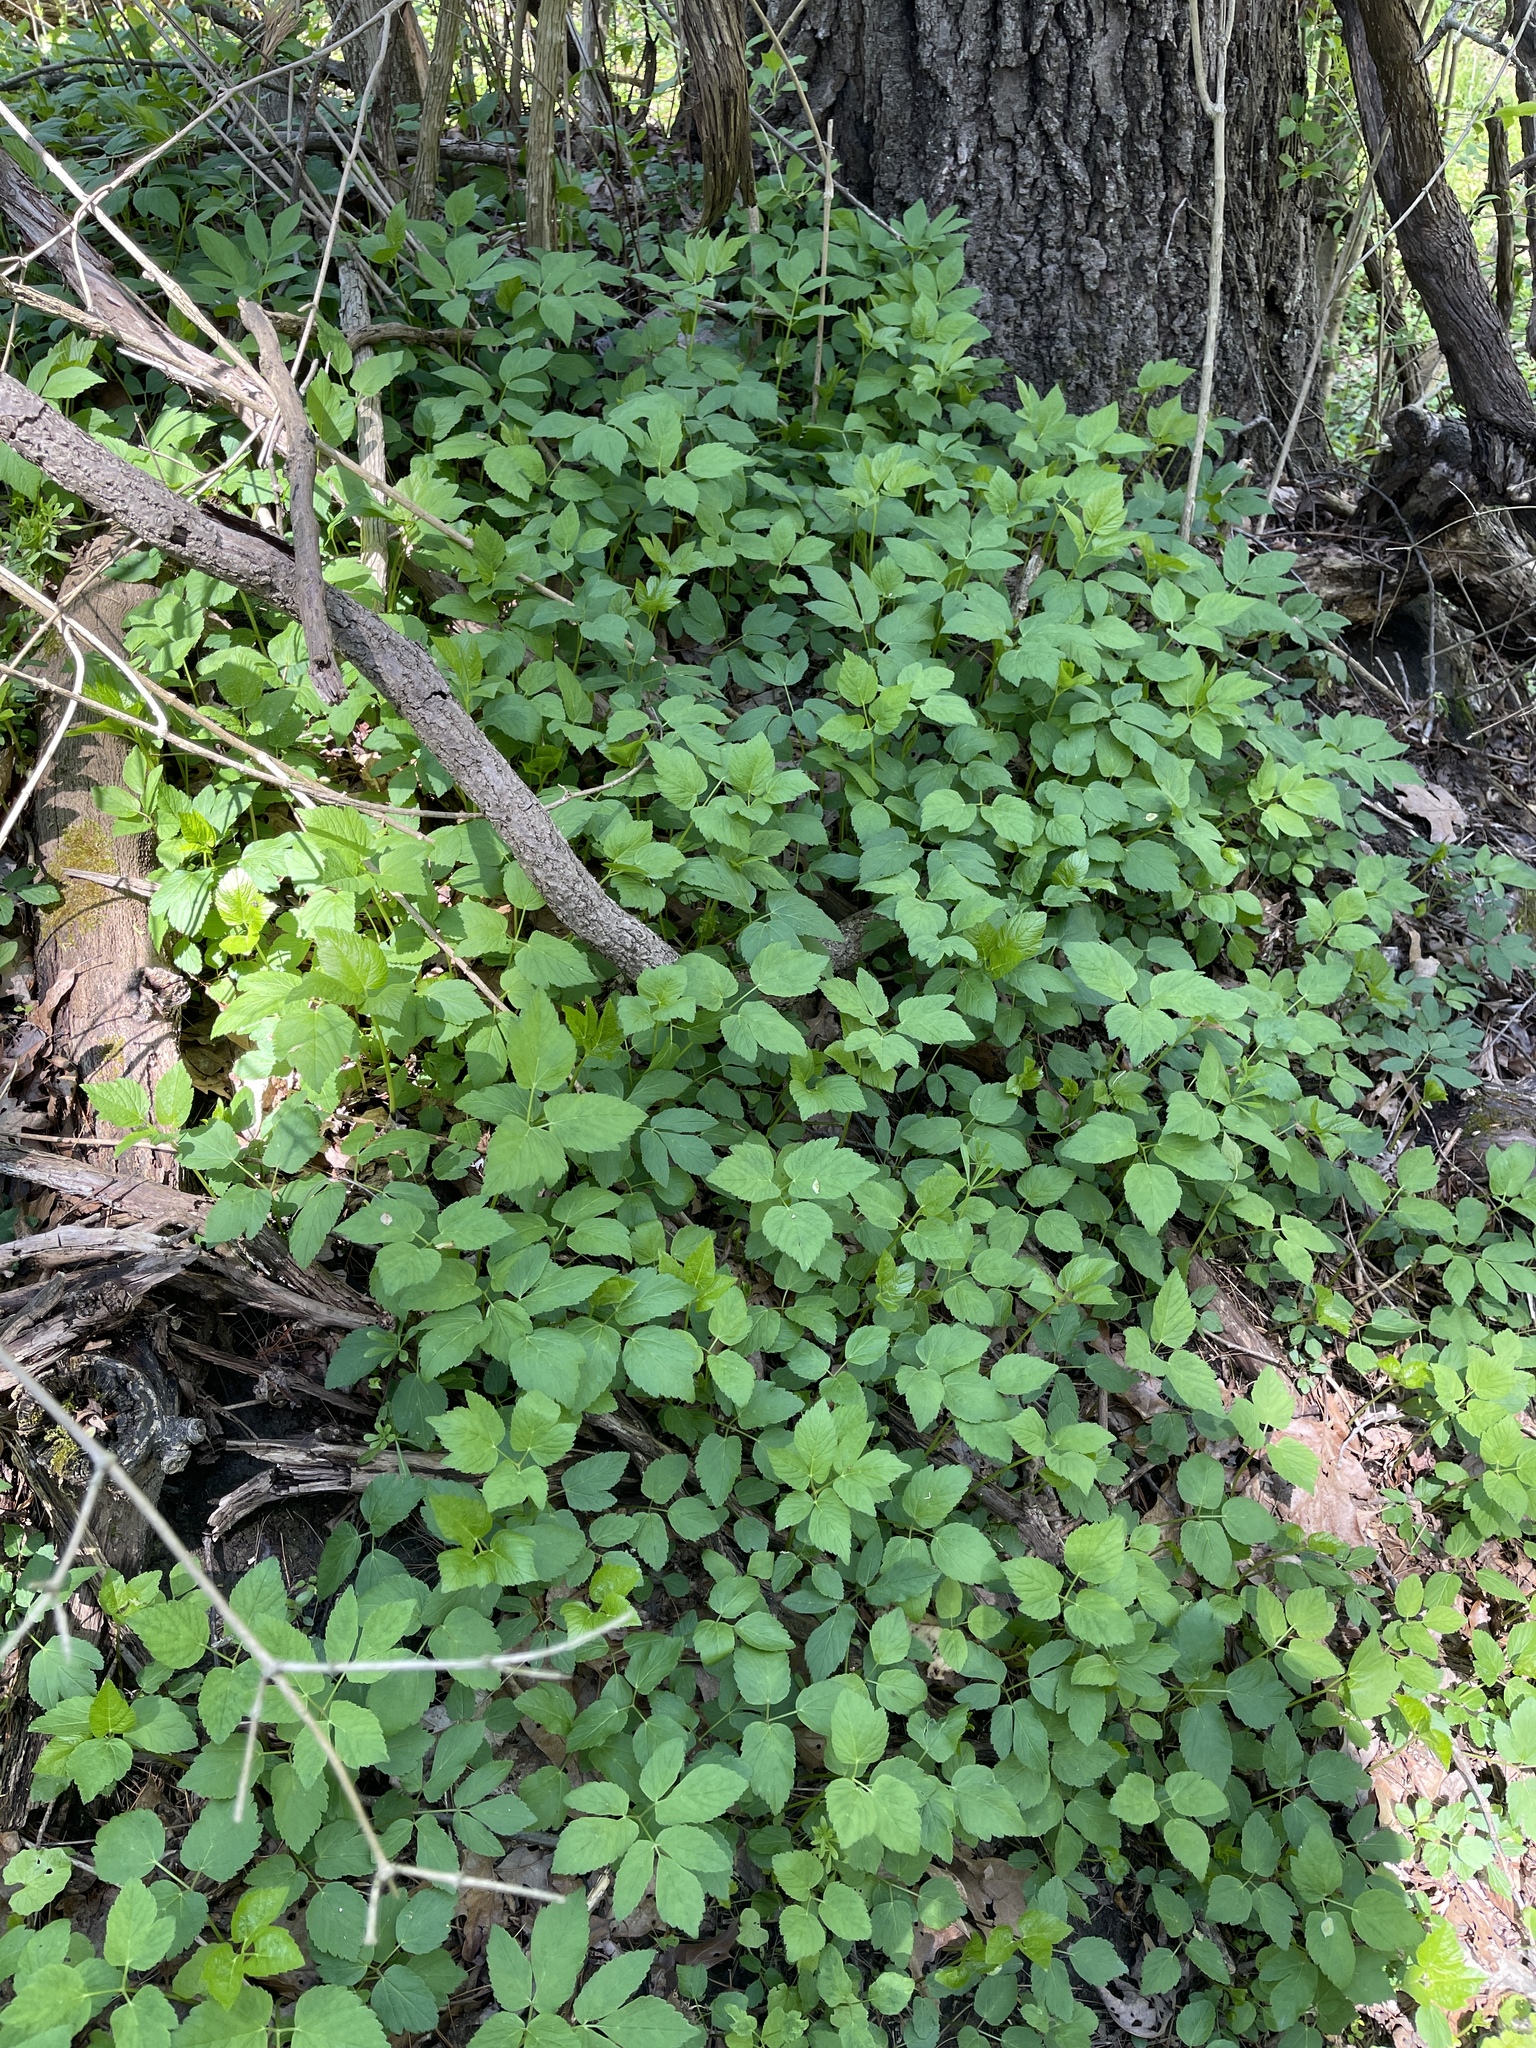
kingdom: Plantae
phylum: Tracheophyta
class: Magnoliopsida
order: Apiales
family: Apiaceae
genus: Aegopodium
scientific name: Aegopodium podagraria
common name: Ground-elder
